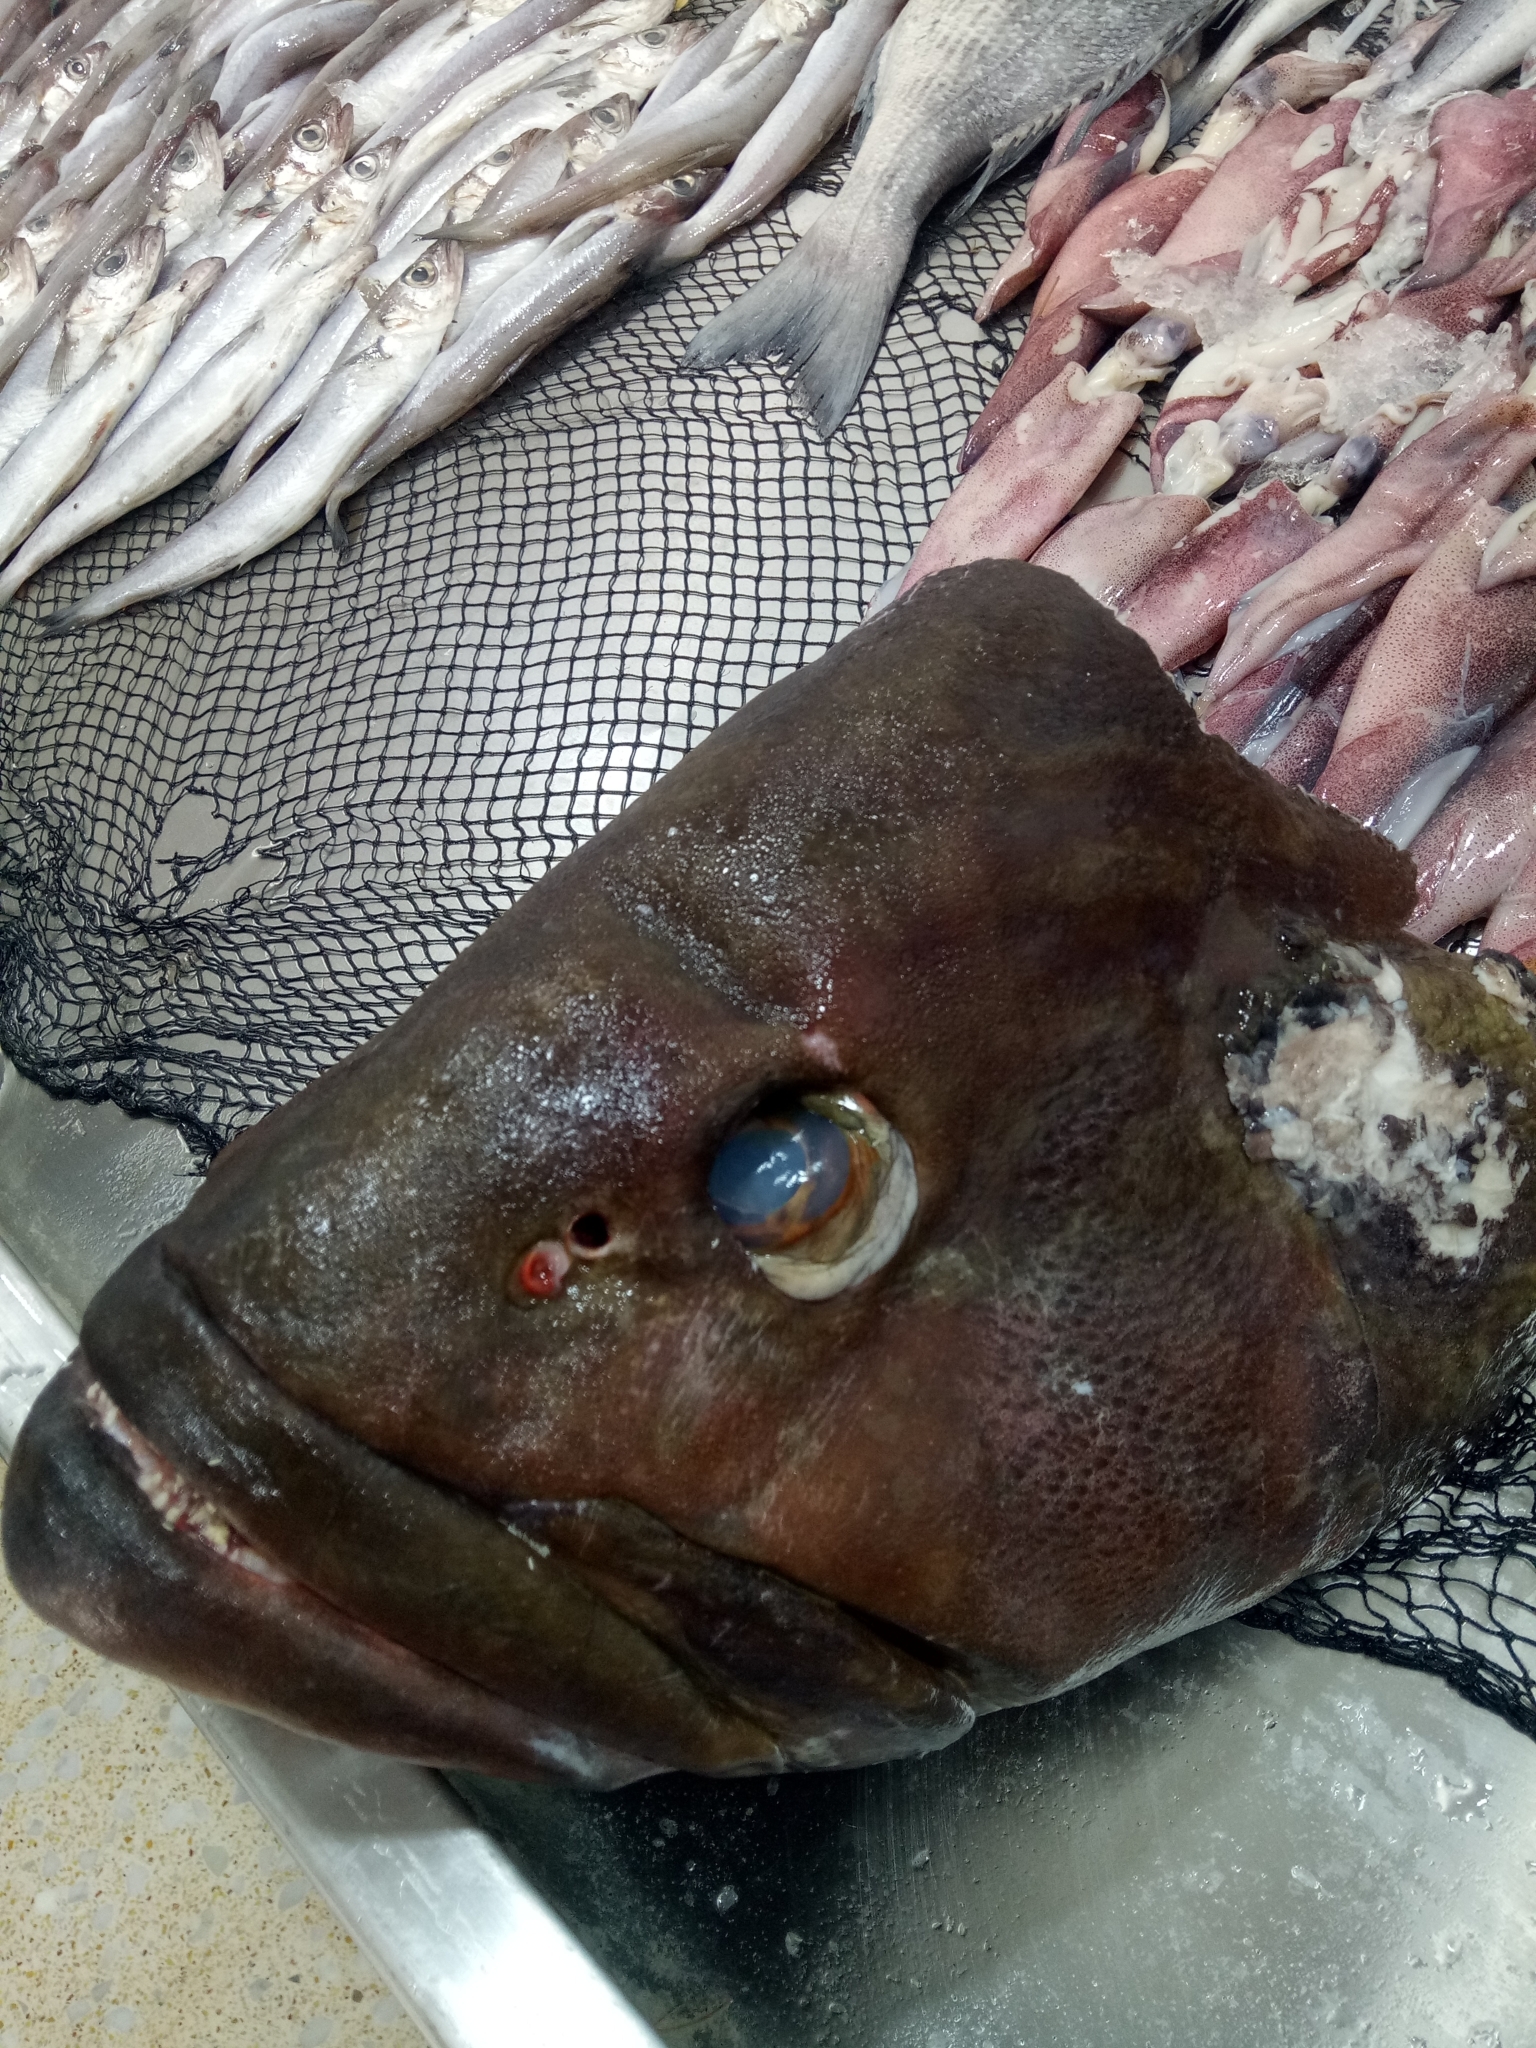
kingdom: Animalia
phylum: Chordata
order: Perciformes
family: Serranidae
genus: Epinephelus
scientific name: Epinephelus marginatus
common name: Dusky grouper
